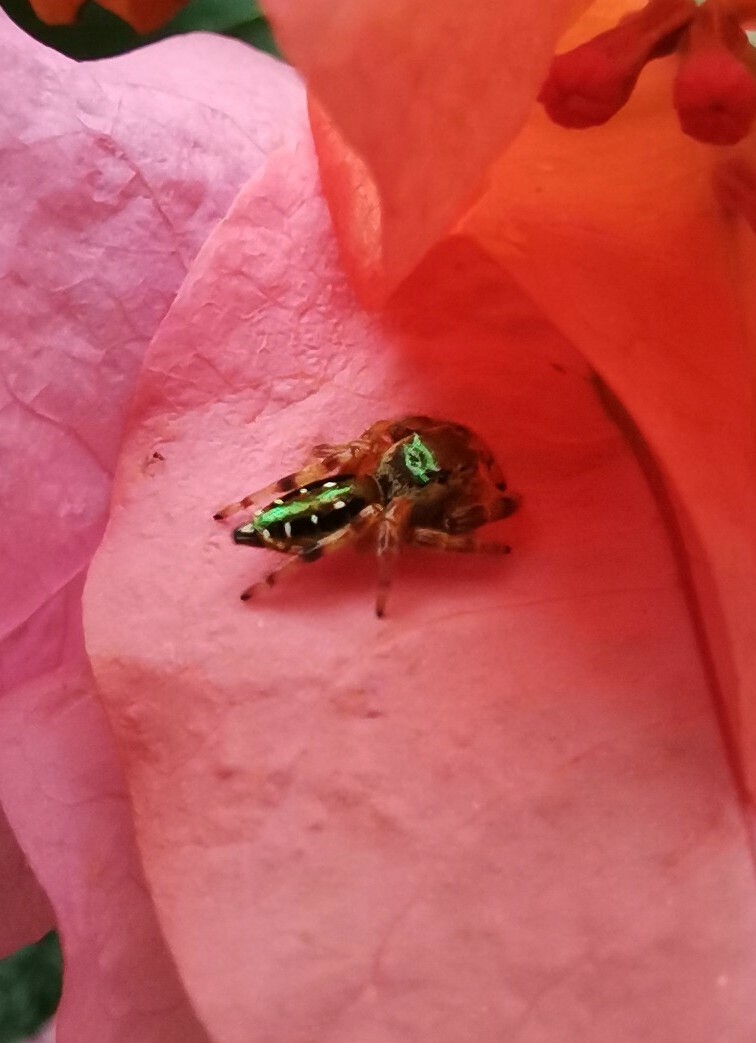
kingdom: Animalia
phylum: Arthropoda
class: Arachnida
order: Araneae
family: Salticidae
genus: Paraphidippus
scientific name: Paraphidippus aurantius
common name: Jumping spiders
